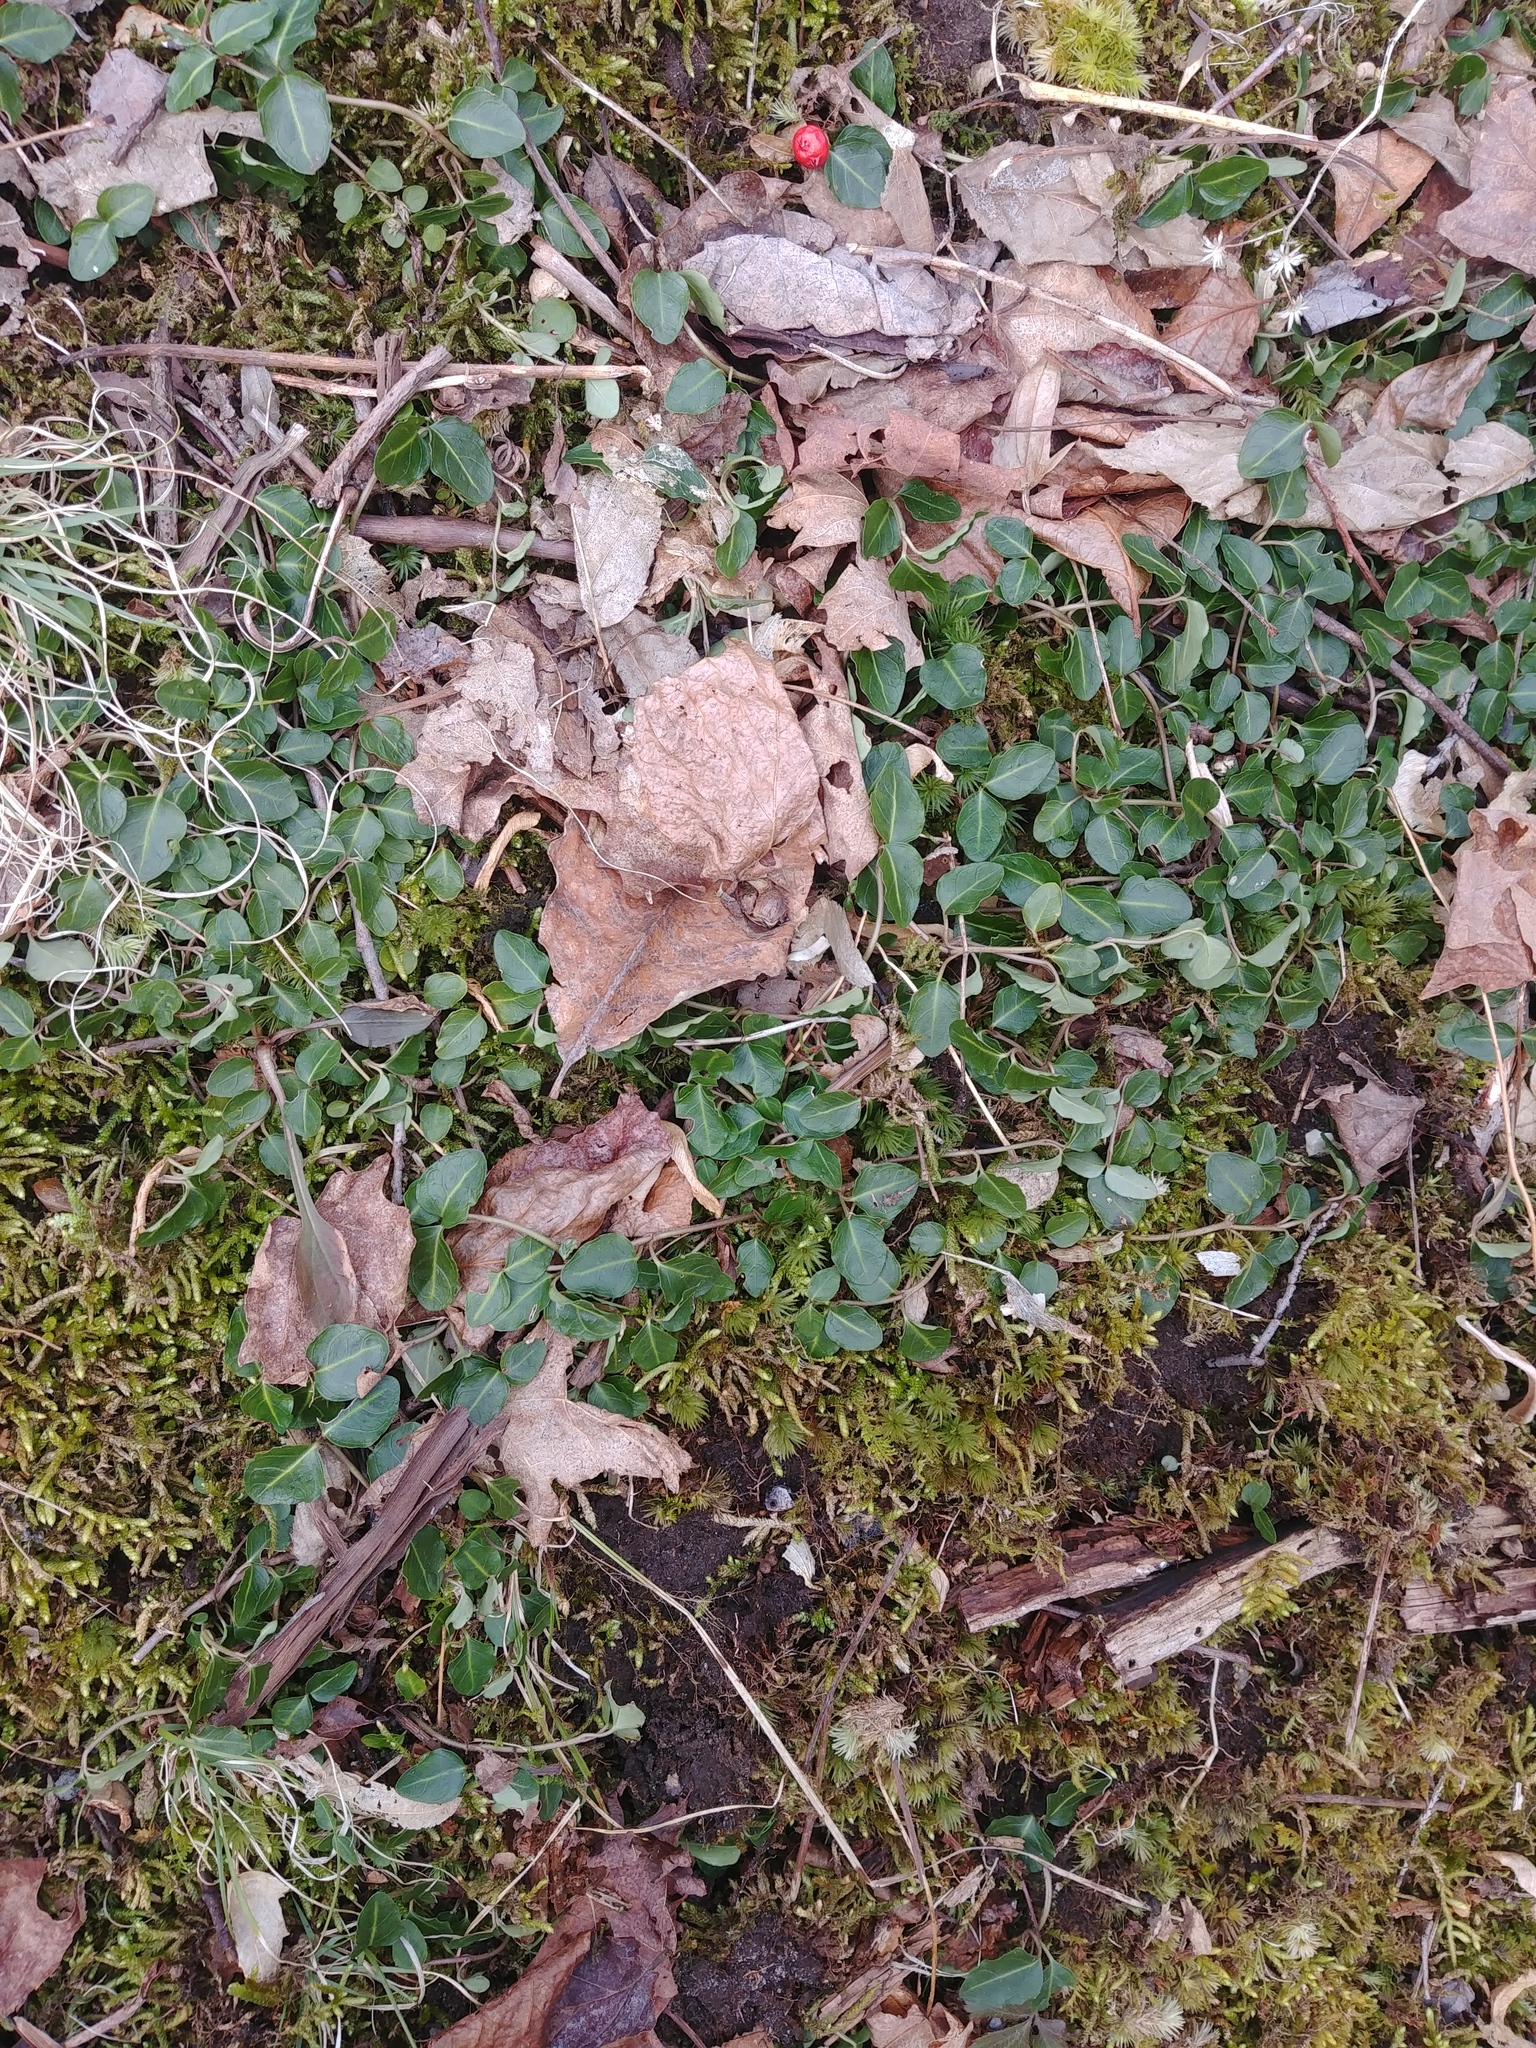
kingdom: Plantae
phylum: Tracheophyta
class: Magnoliopsida
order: Gentianales
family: Rubiaceae
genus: Mitchella
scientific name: Mitchella repens
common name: Partridge-berry
